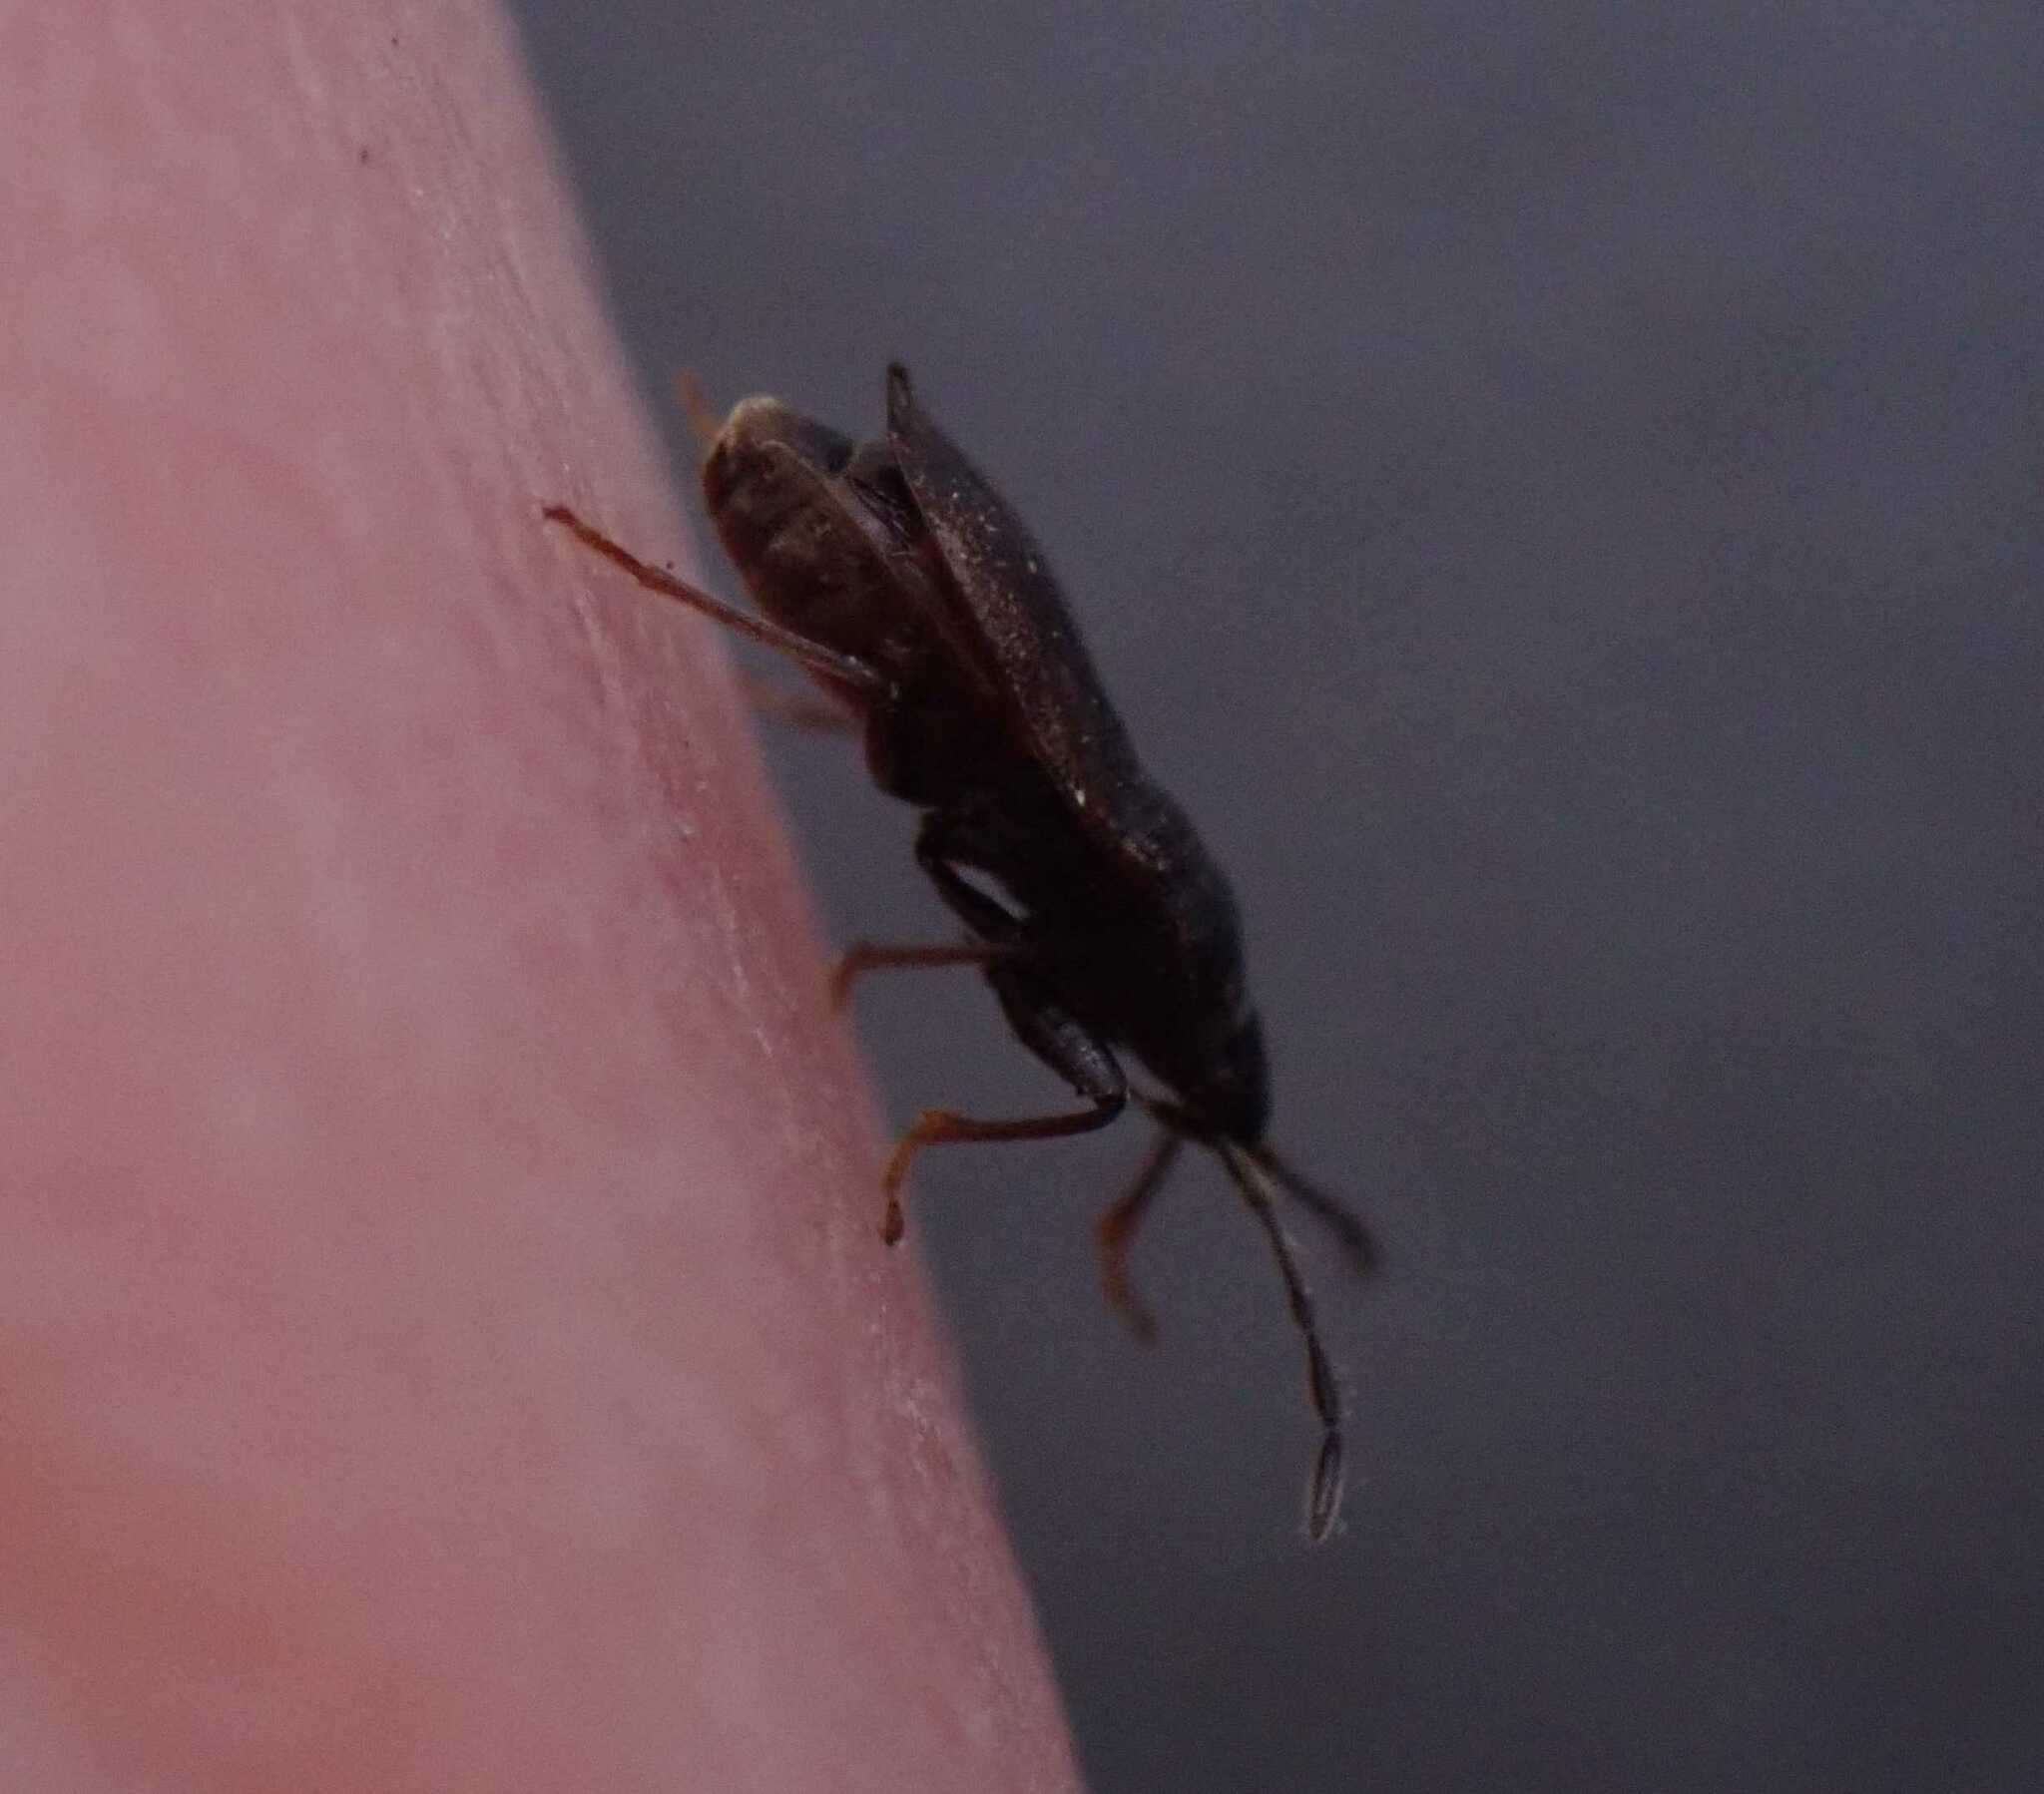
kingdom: Animalia
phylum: Arthropoda
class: Insecta
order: Hemiptera
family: Rhyparochromidae
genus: Drymus
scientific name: Drymus brunneus
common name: Seed bug
